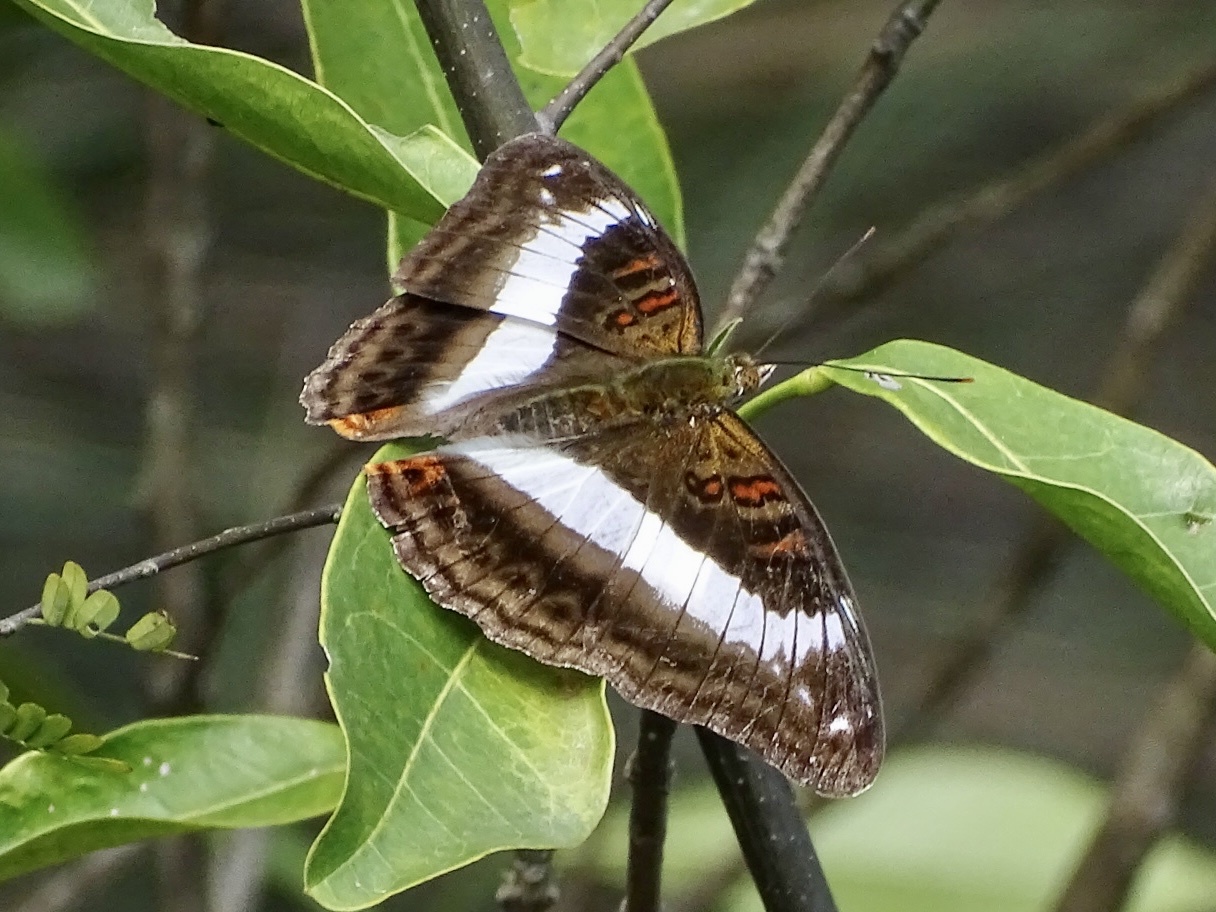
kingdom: Animalia
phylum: Arthropoda
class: Insecta
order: Lepidoptera
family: Nymphalidae
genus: Limenitis
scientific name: Limenitis Parasarpa dudu
